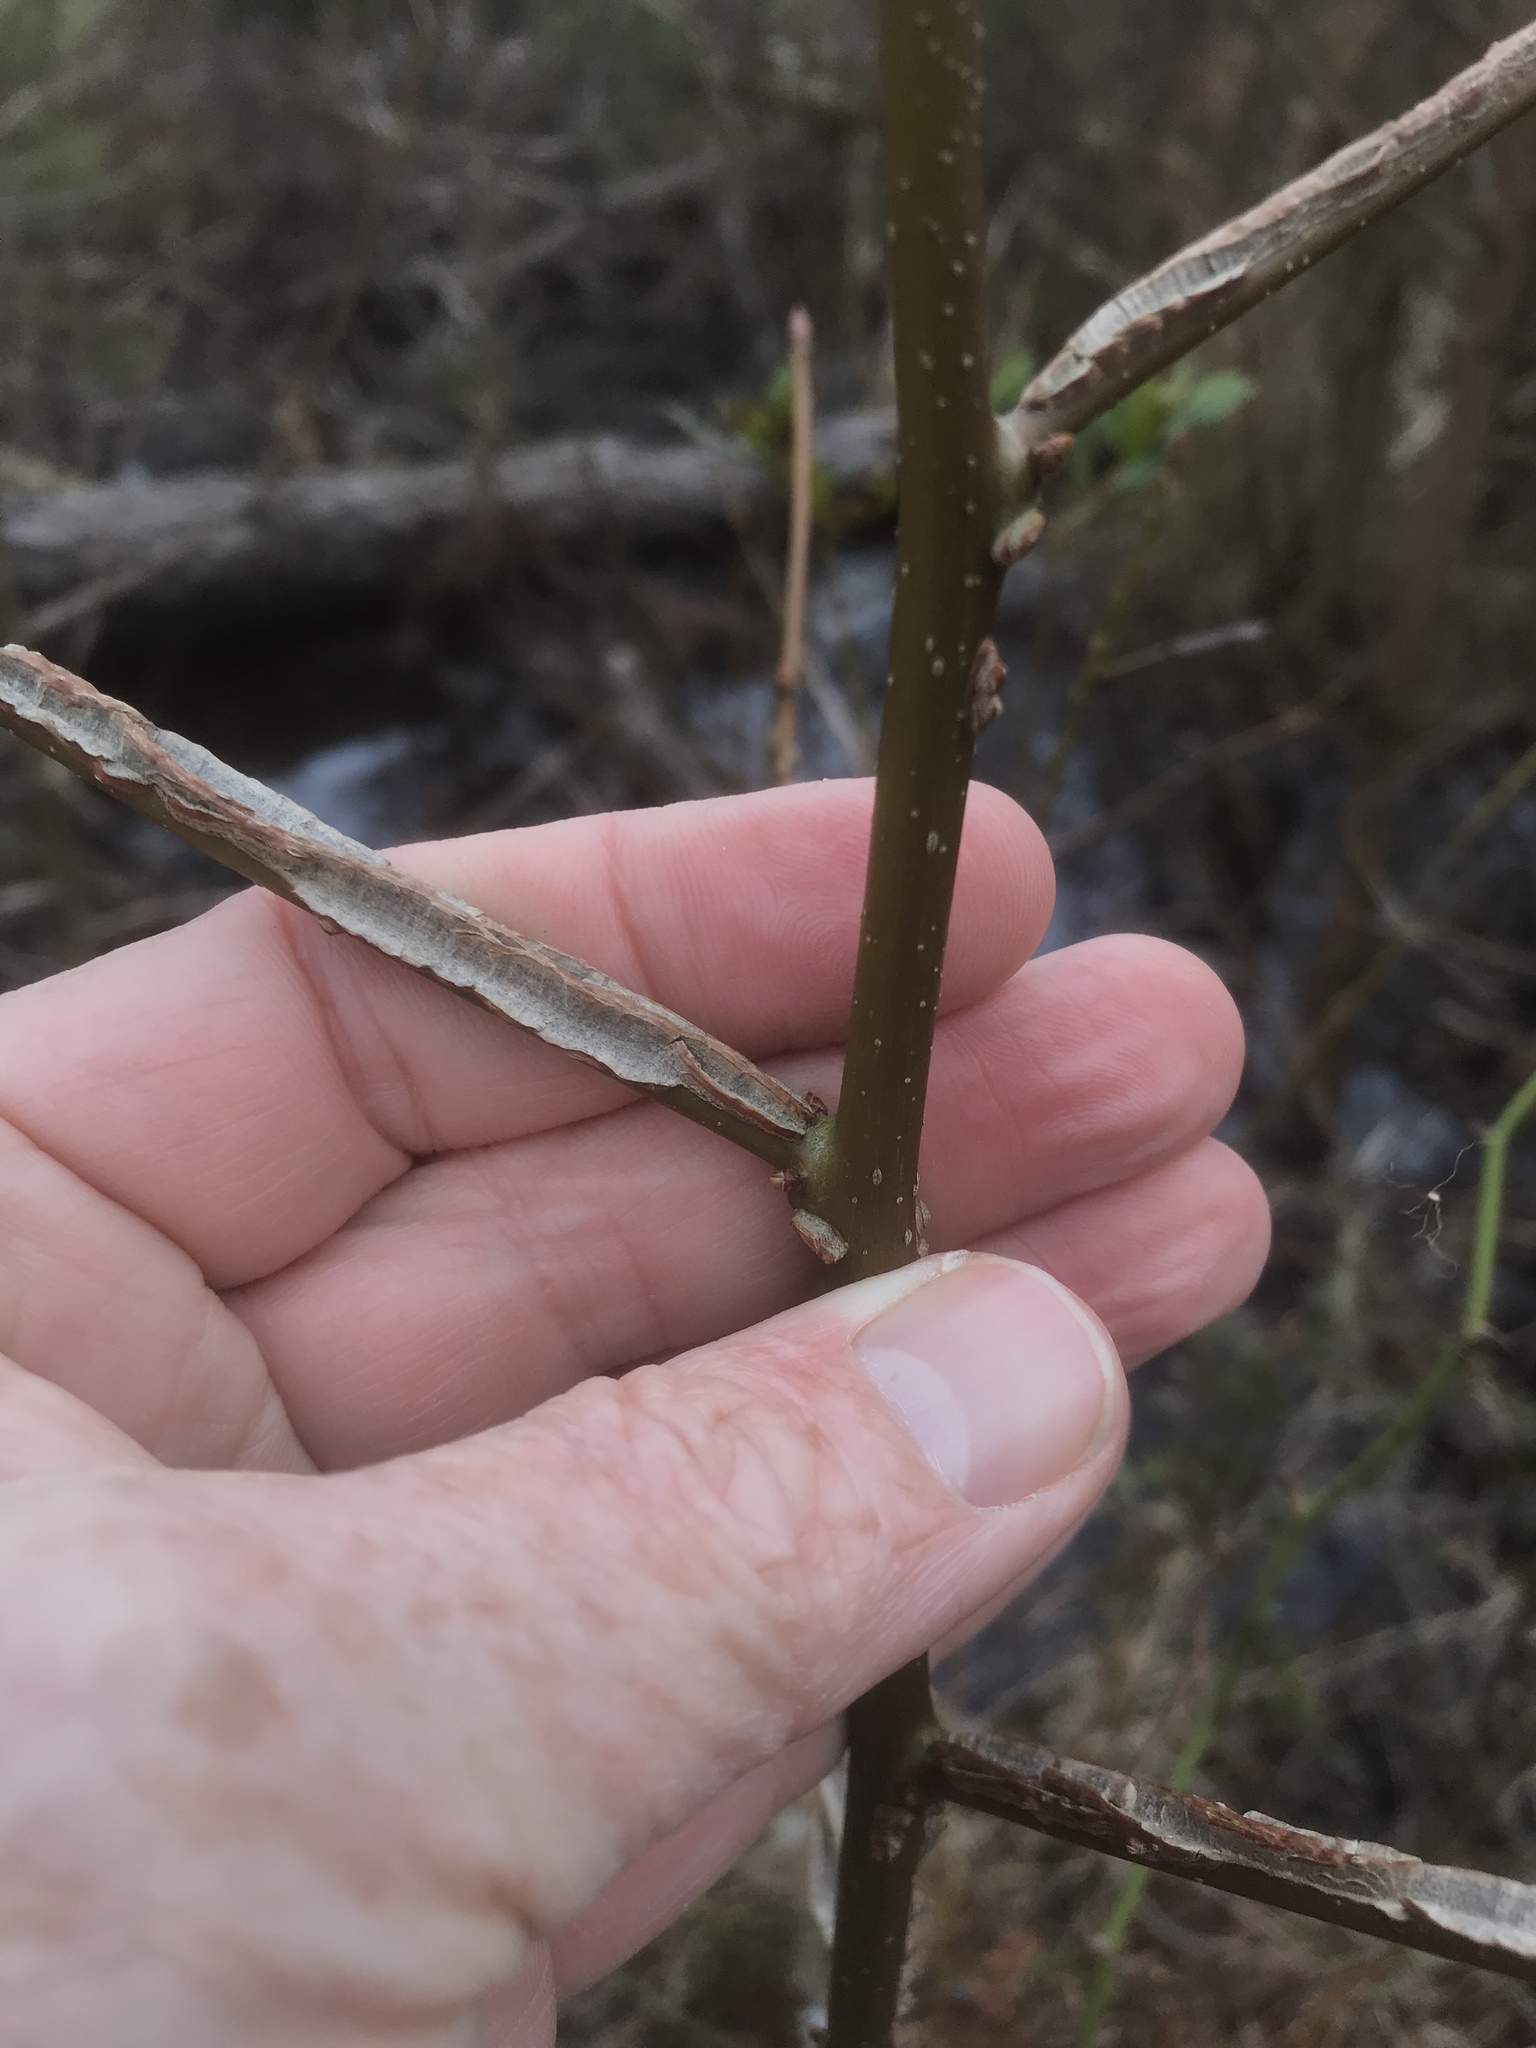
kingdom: Plantae
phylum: Tracheophyta
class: Magnoliopsida
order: Saxifragales
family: Altingiaceae
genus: Liquidambar
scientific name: Liquidambar styraciflua
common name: Sweet gum
